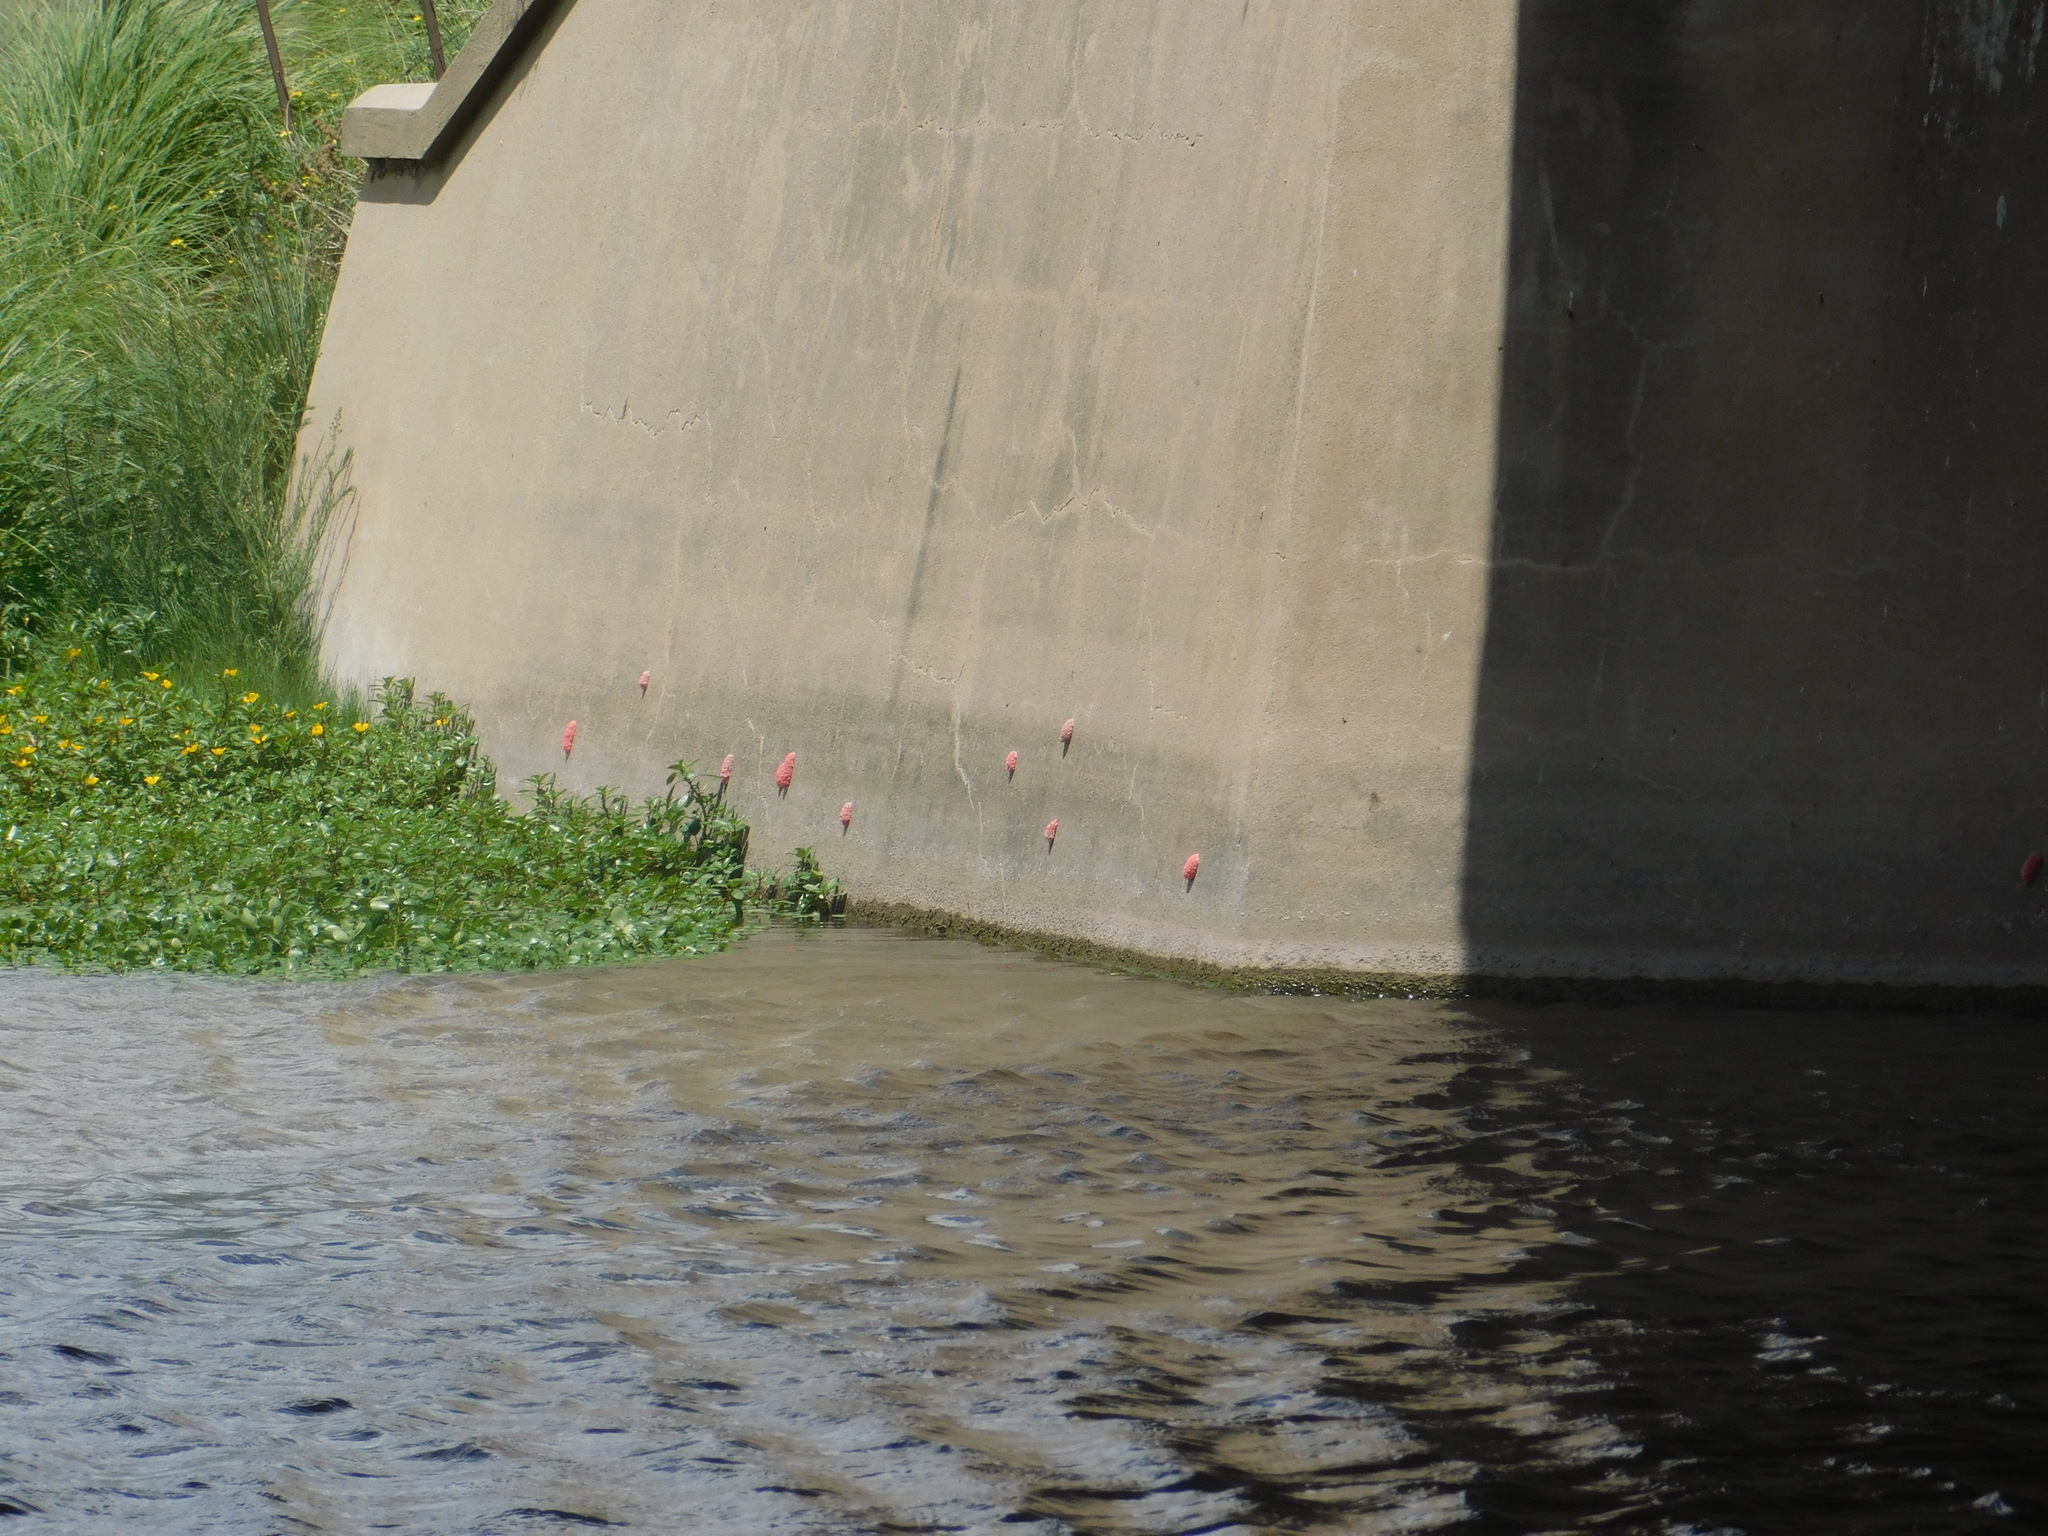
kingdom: Animalia
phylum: Mollusca
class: Gastropoda
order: Architaenioglossa
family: Ampullariidae
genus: Pomacea
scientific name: Pomacea canaliculata
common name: Channeled applesnail
